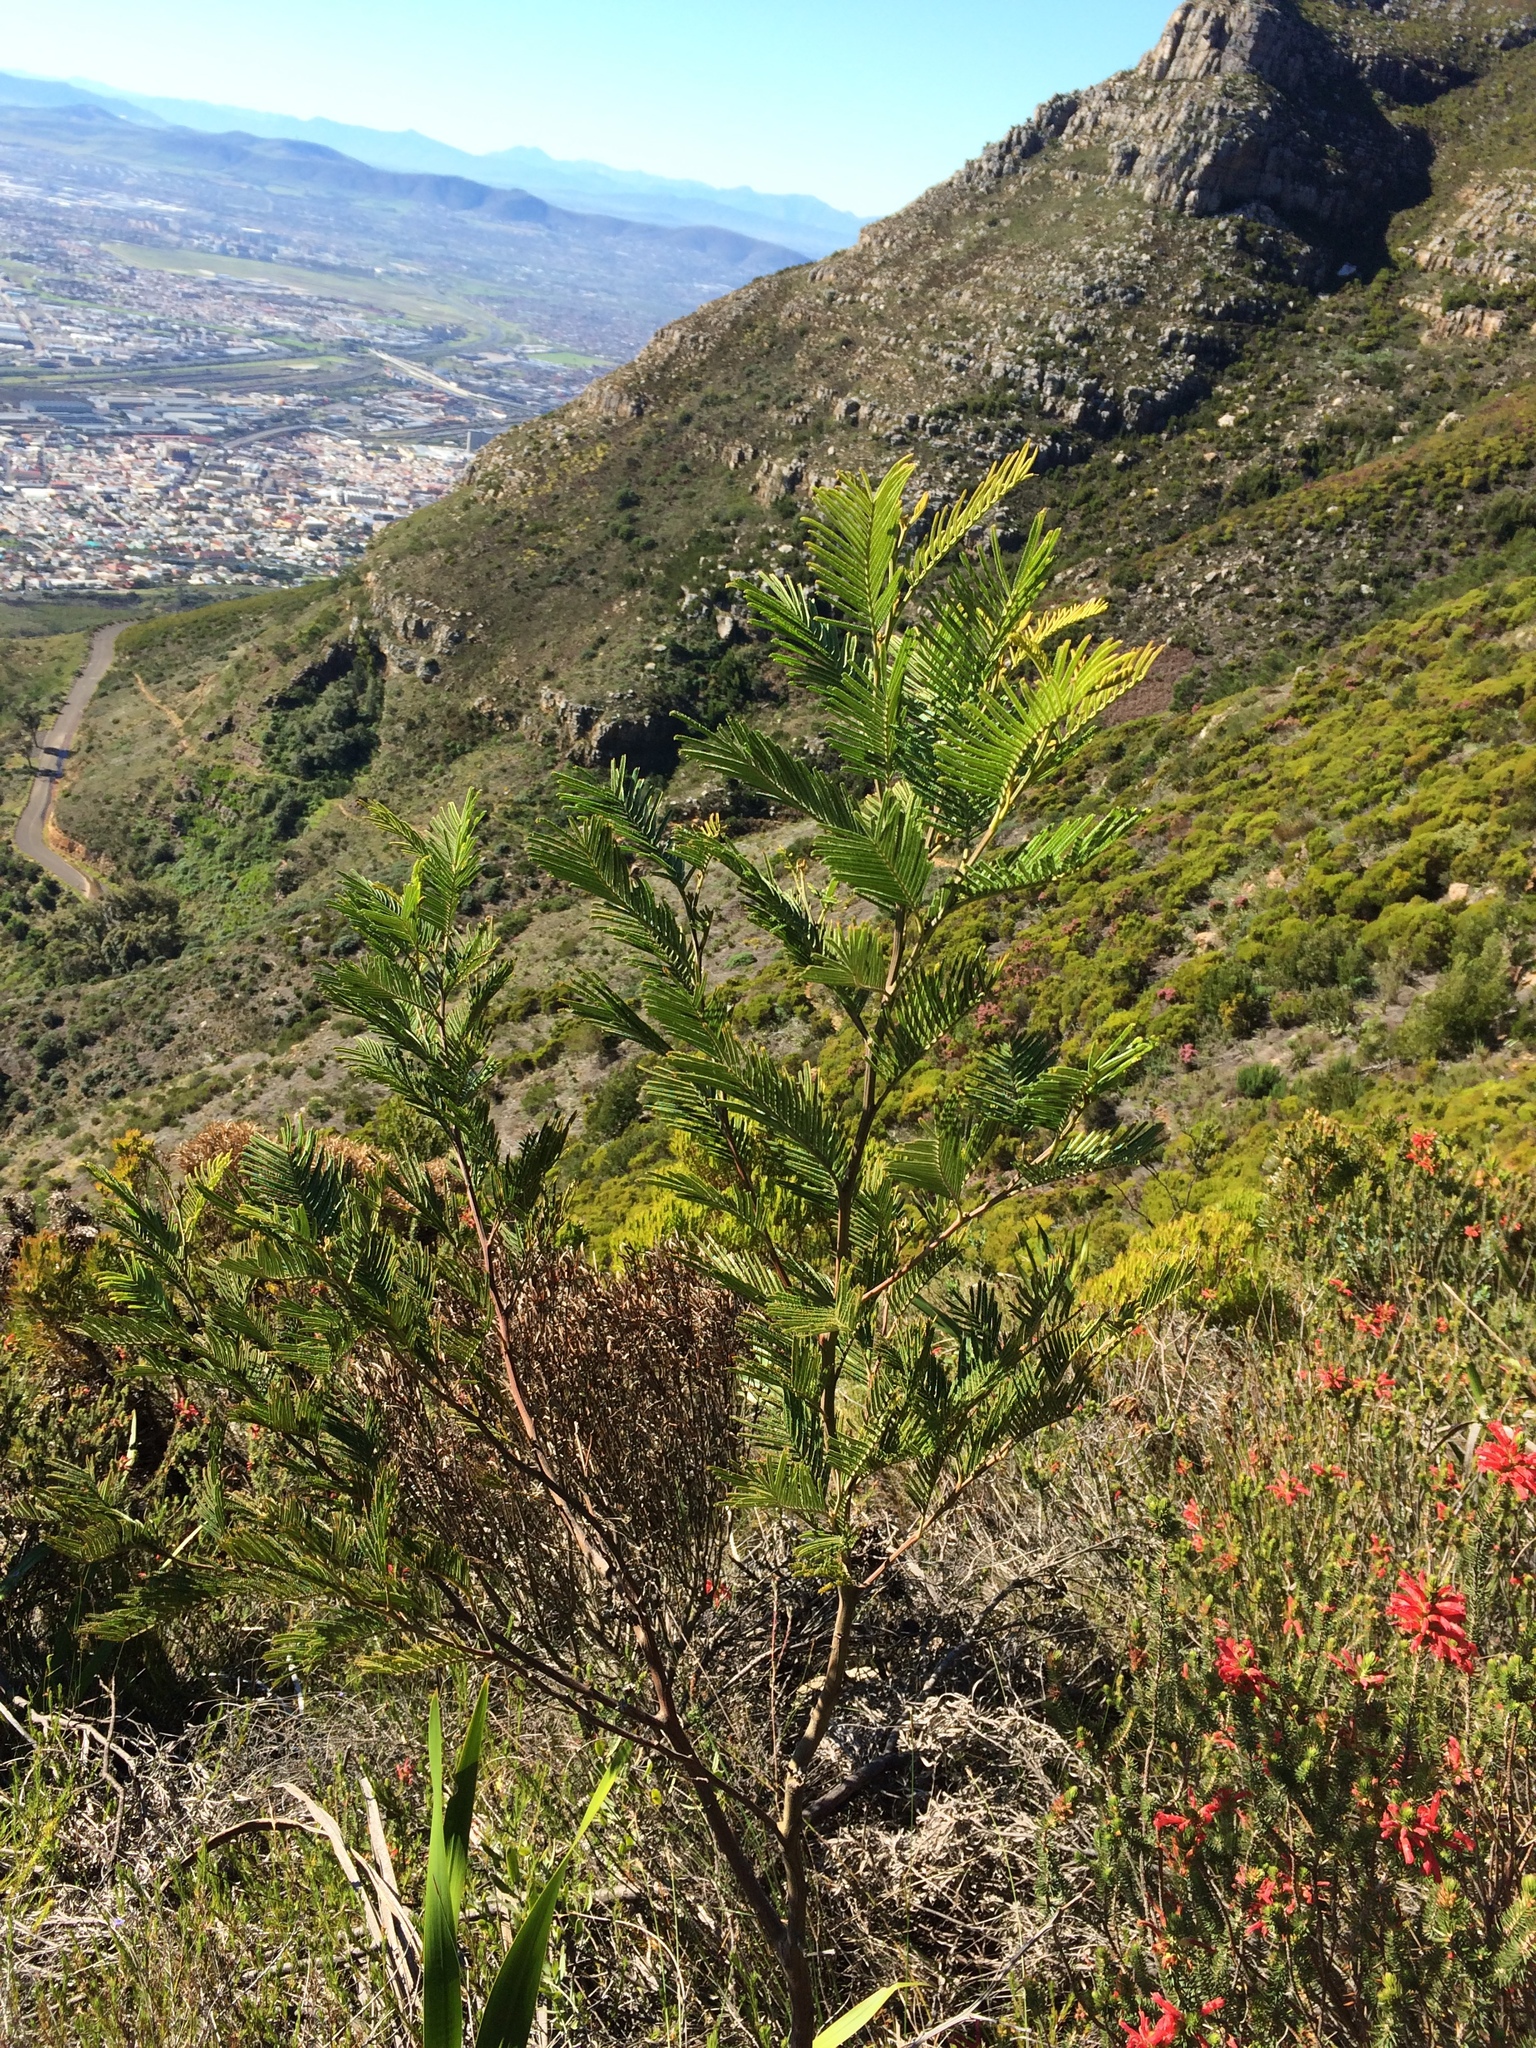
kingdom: Plantae
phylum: Tracheophyta
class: Magnoliopsida
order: Fabales
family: Fabaceae
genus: Acacia
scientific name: Acacia mearnsii
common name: Black wattle
